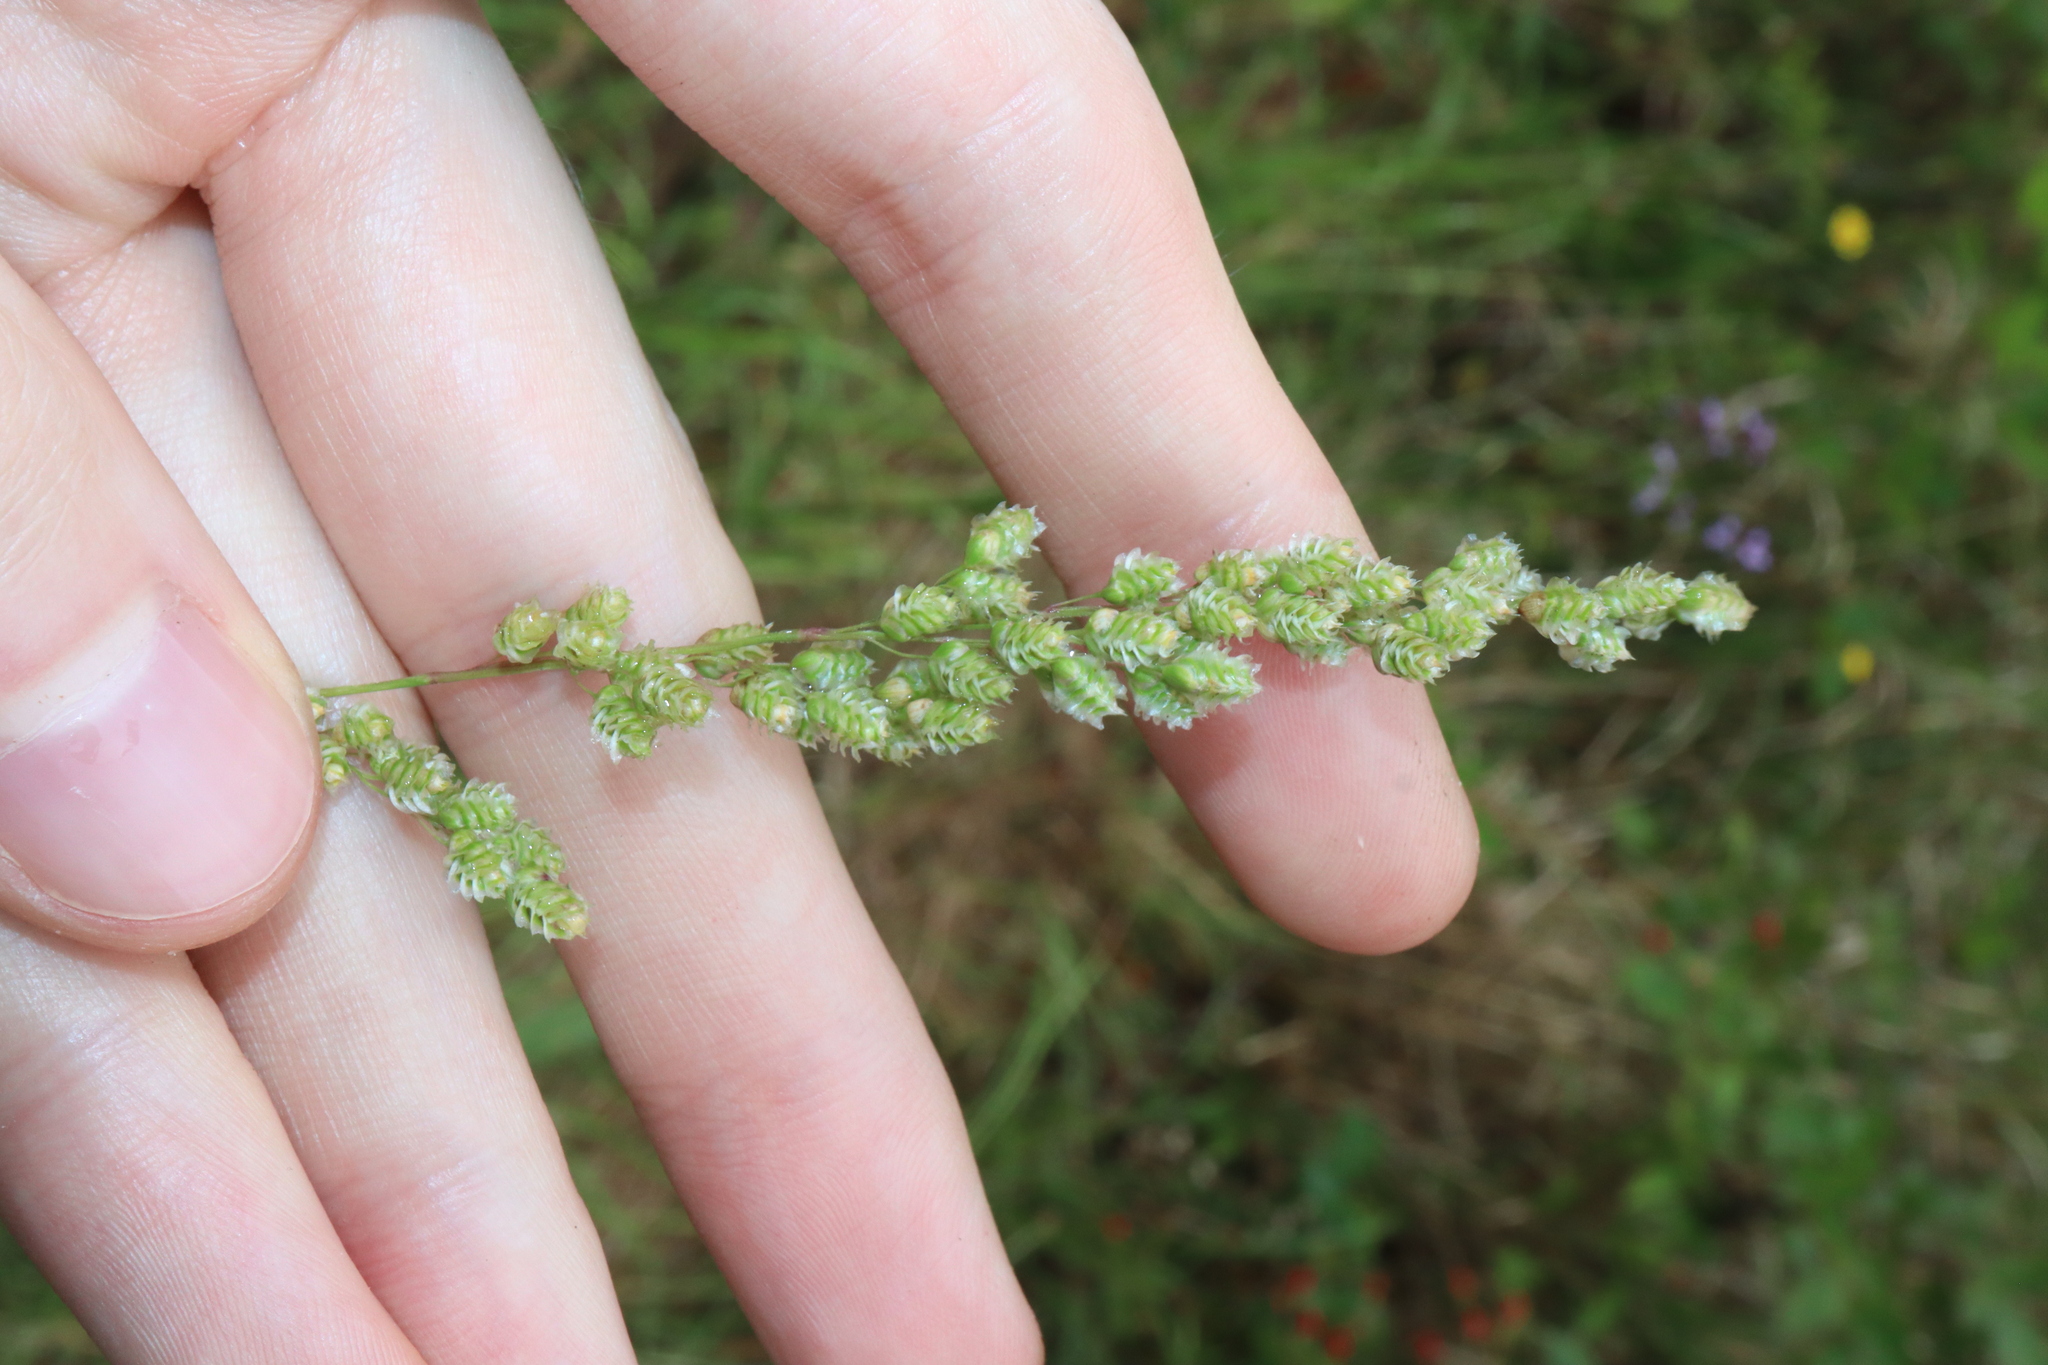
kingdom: Plantae
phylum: Tracheophyta
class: Liliopsida
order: Poales
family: Poaceae
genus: Chascolytrum
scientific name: Chascolytrum subaristatum
